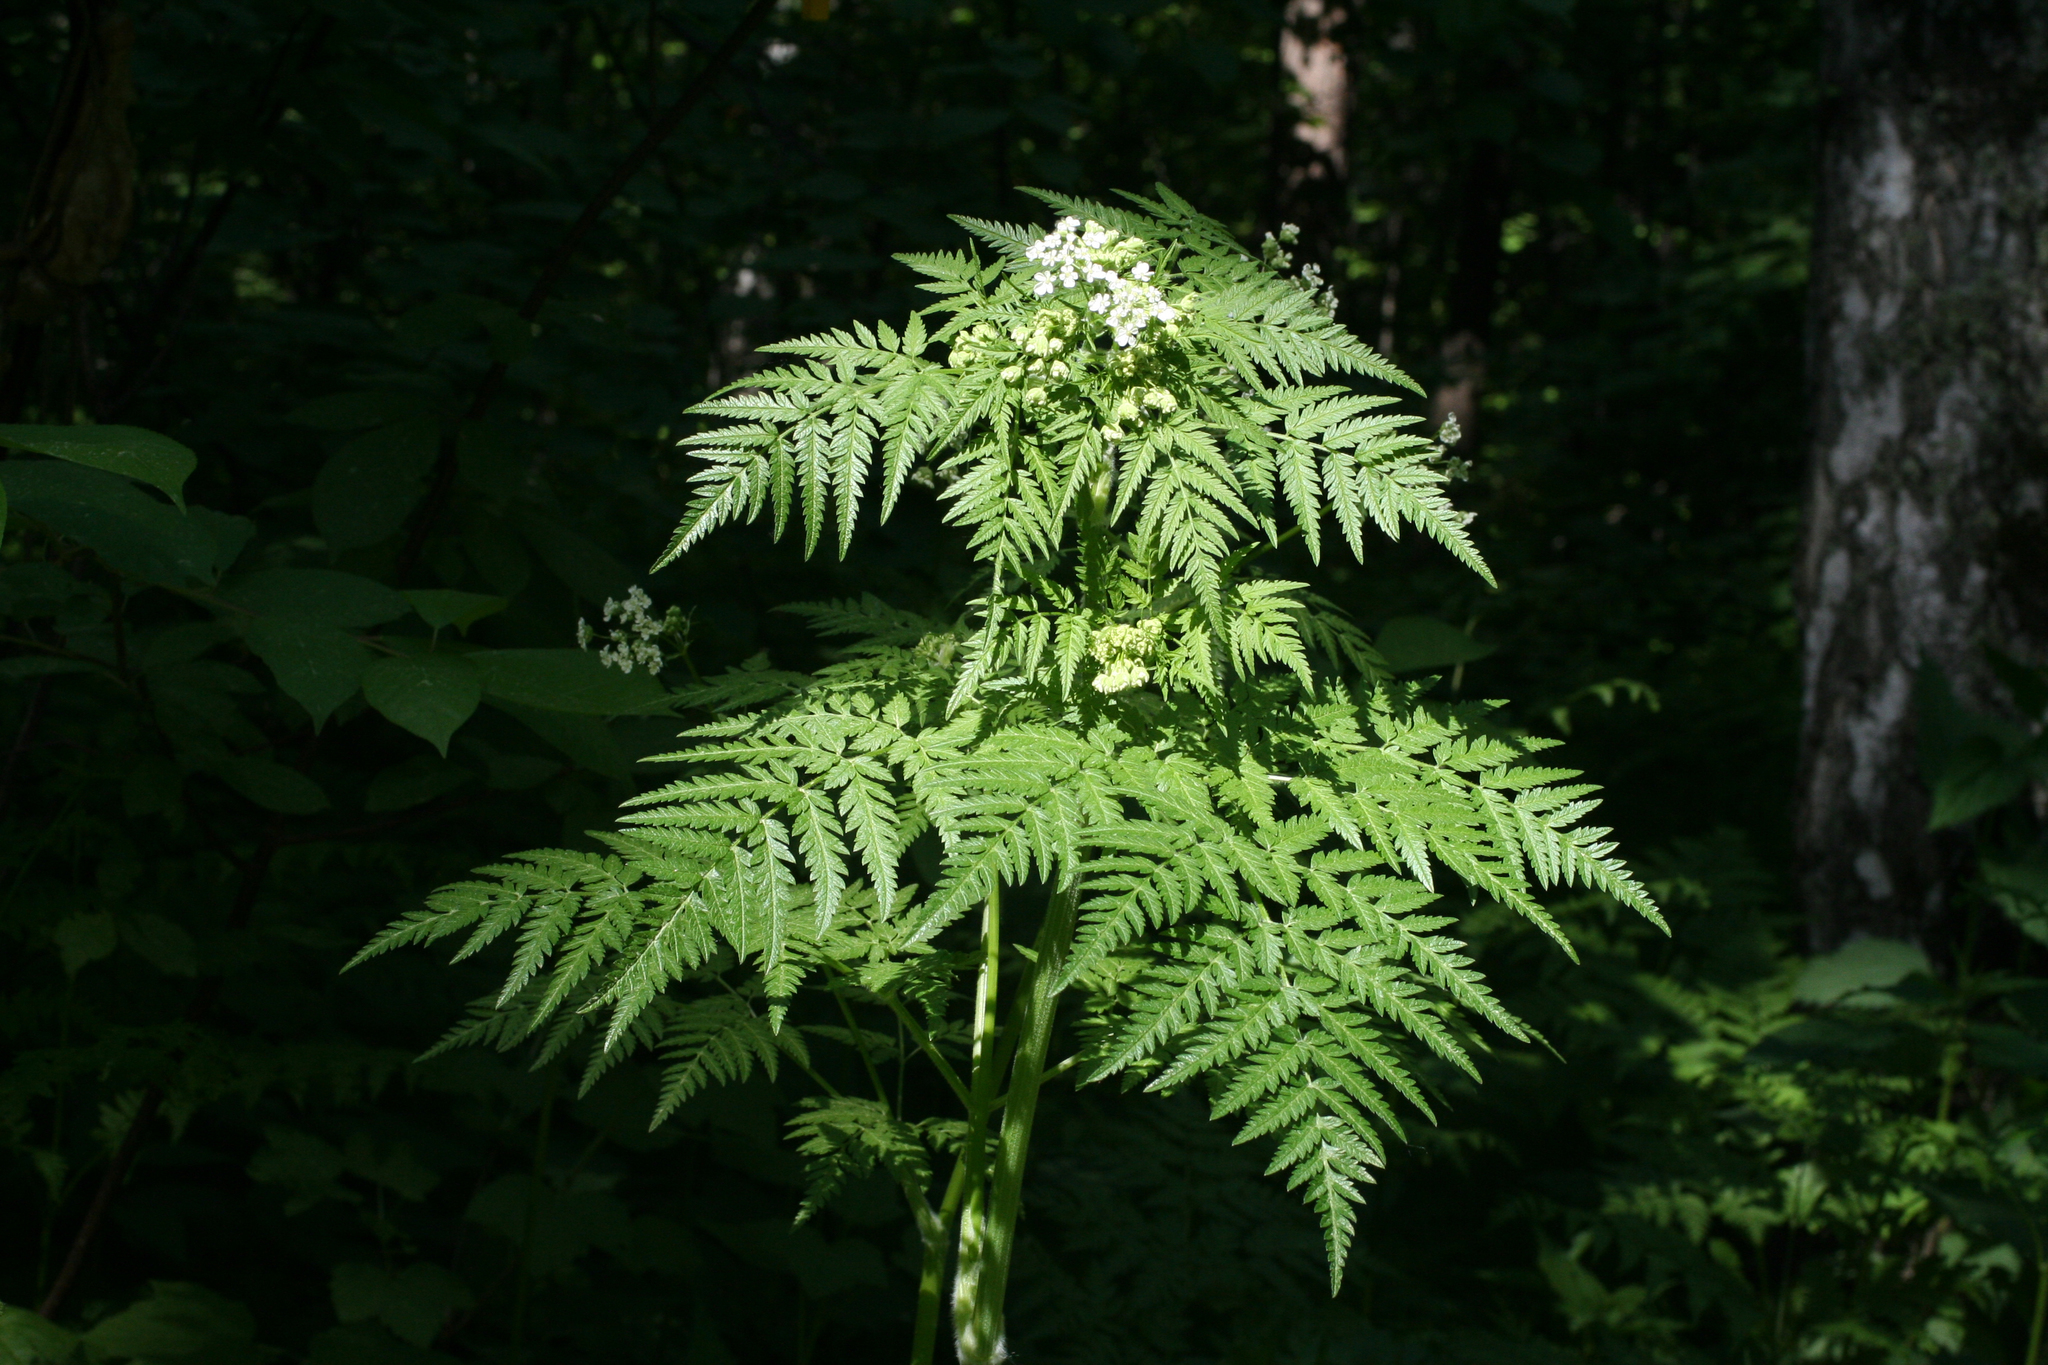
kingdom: Plantae
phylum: Tracheophyta
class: Magnoliopsida
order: Apiales
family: Apiaceae
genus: Anthriscus
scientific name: Anthriscus sylvestris
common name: Cow parsley
